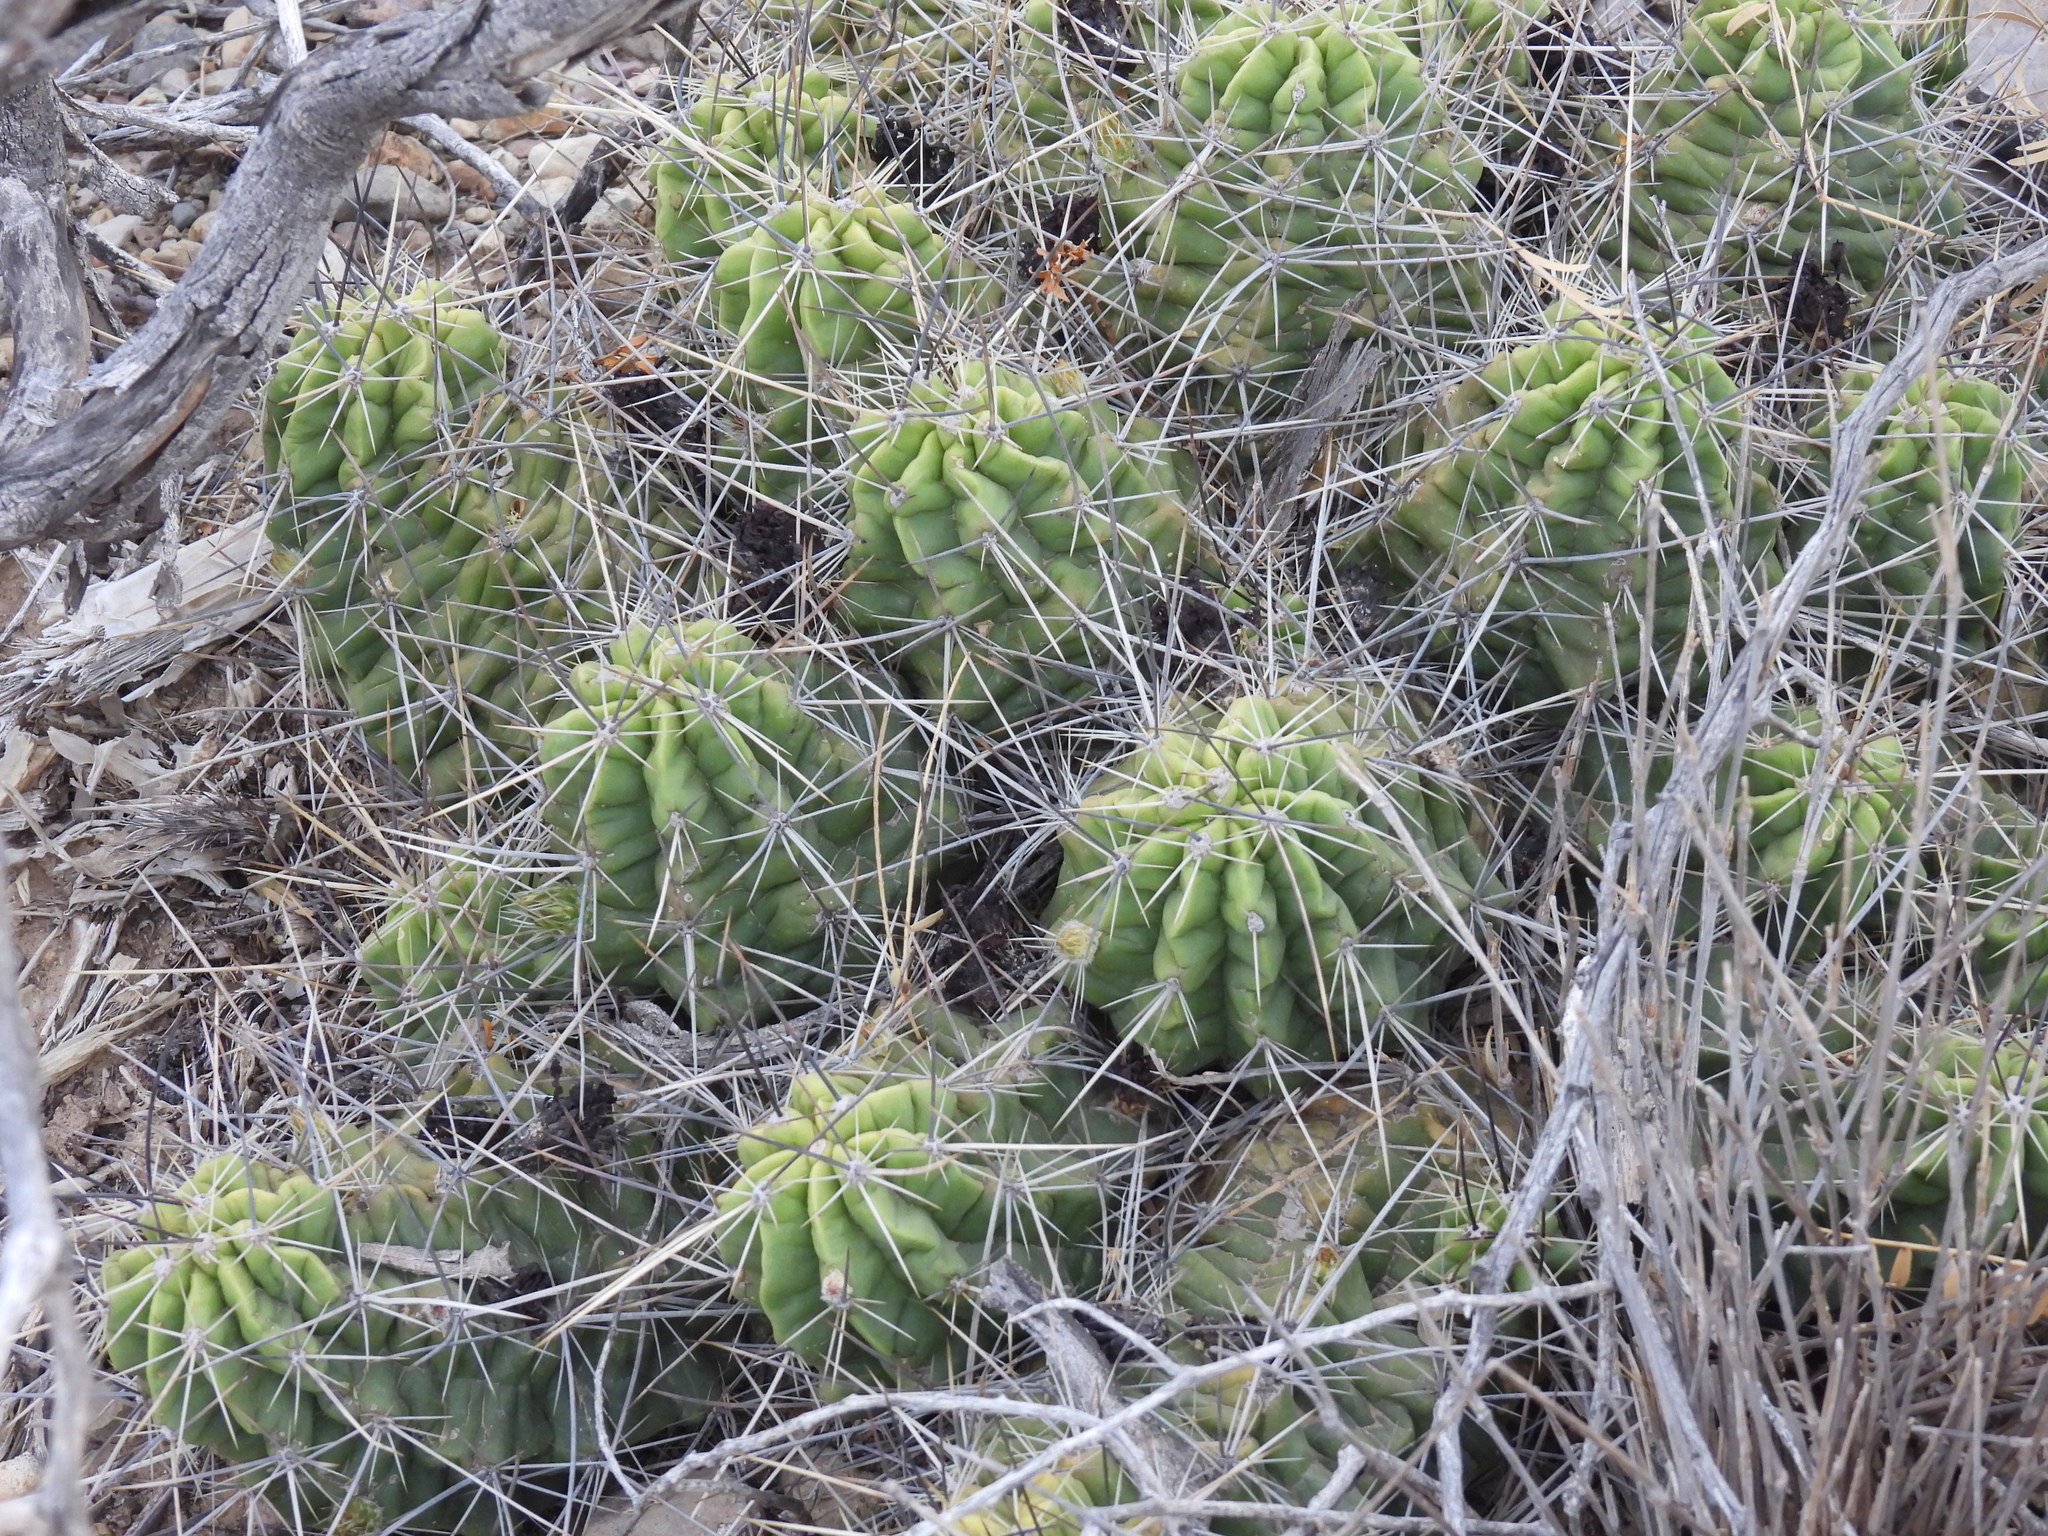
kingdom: Plantae
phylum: Tracheophyta
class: Magnoliopsida
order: Caryophyllales
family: Cactaceae
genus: Echinocereus
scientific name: Echinocereus enneacanthus
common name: Pitaya
